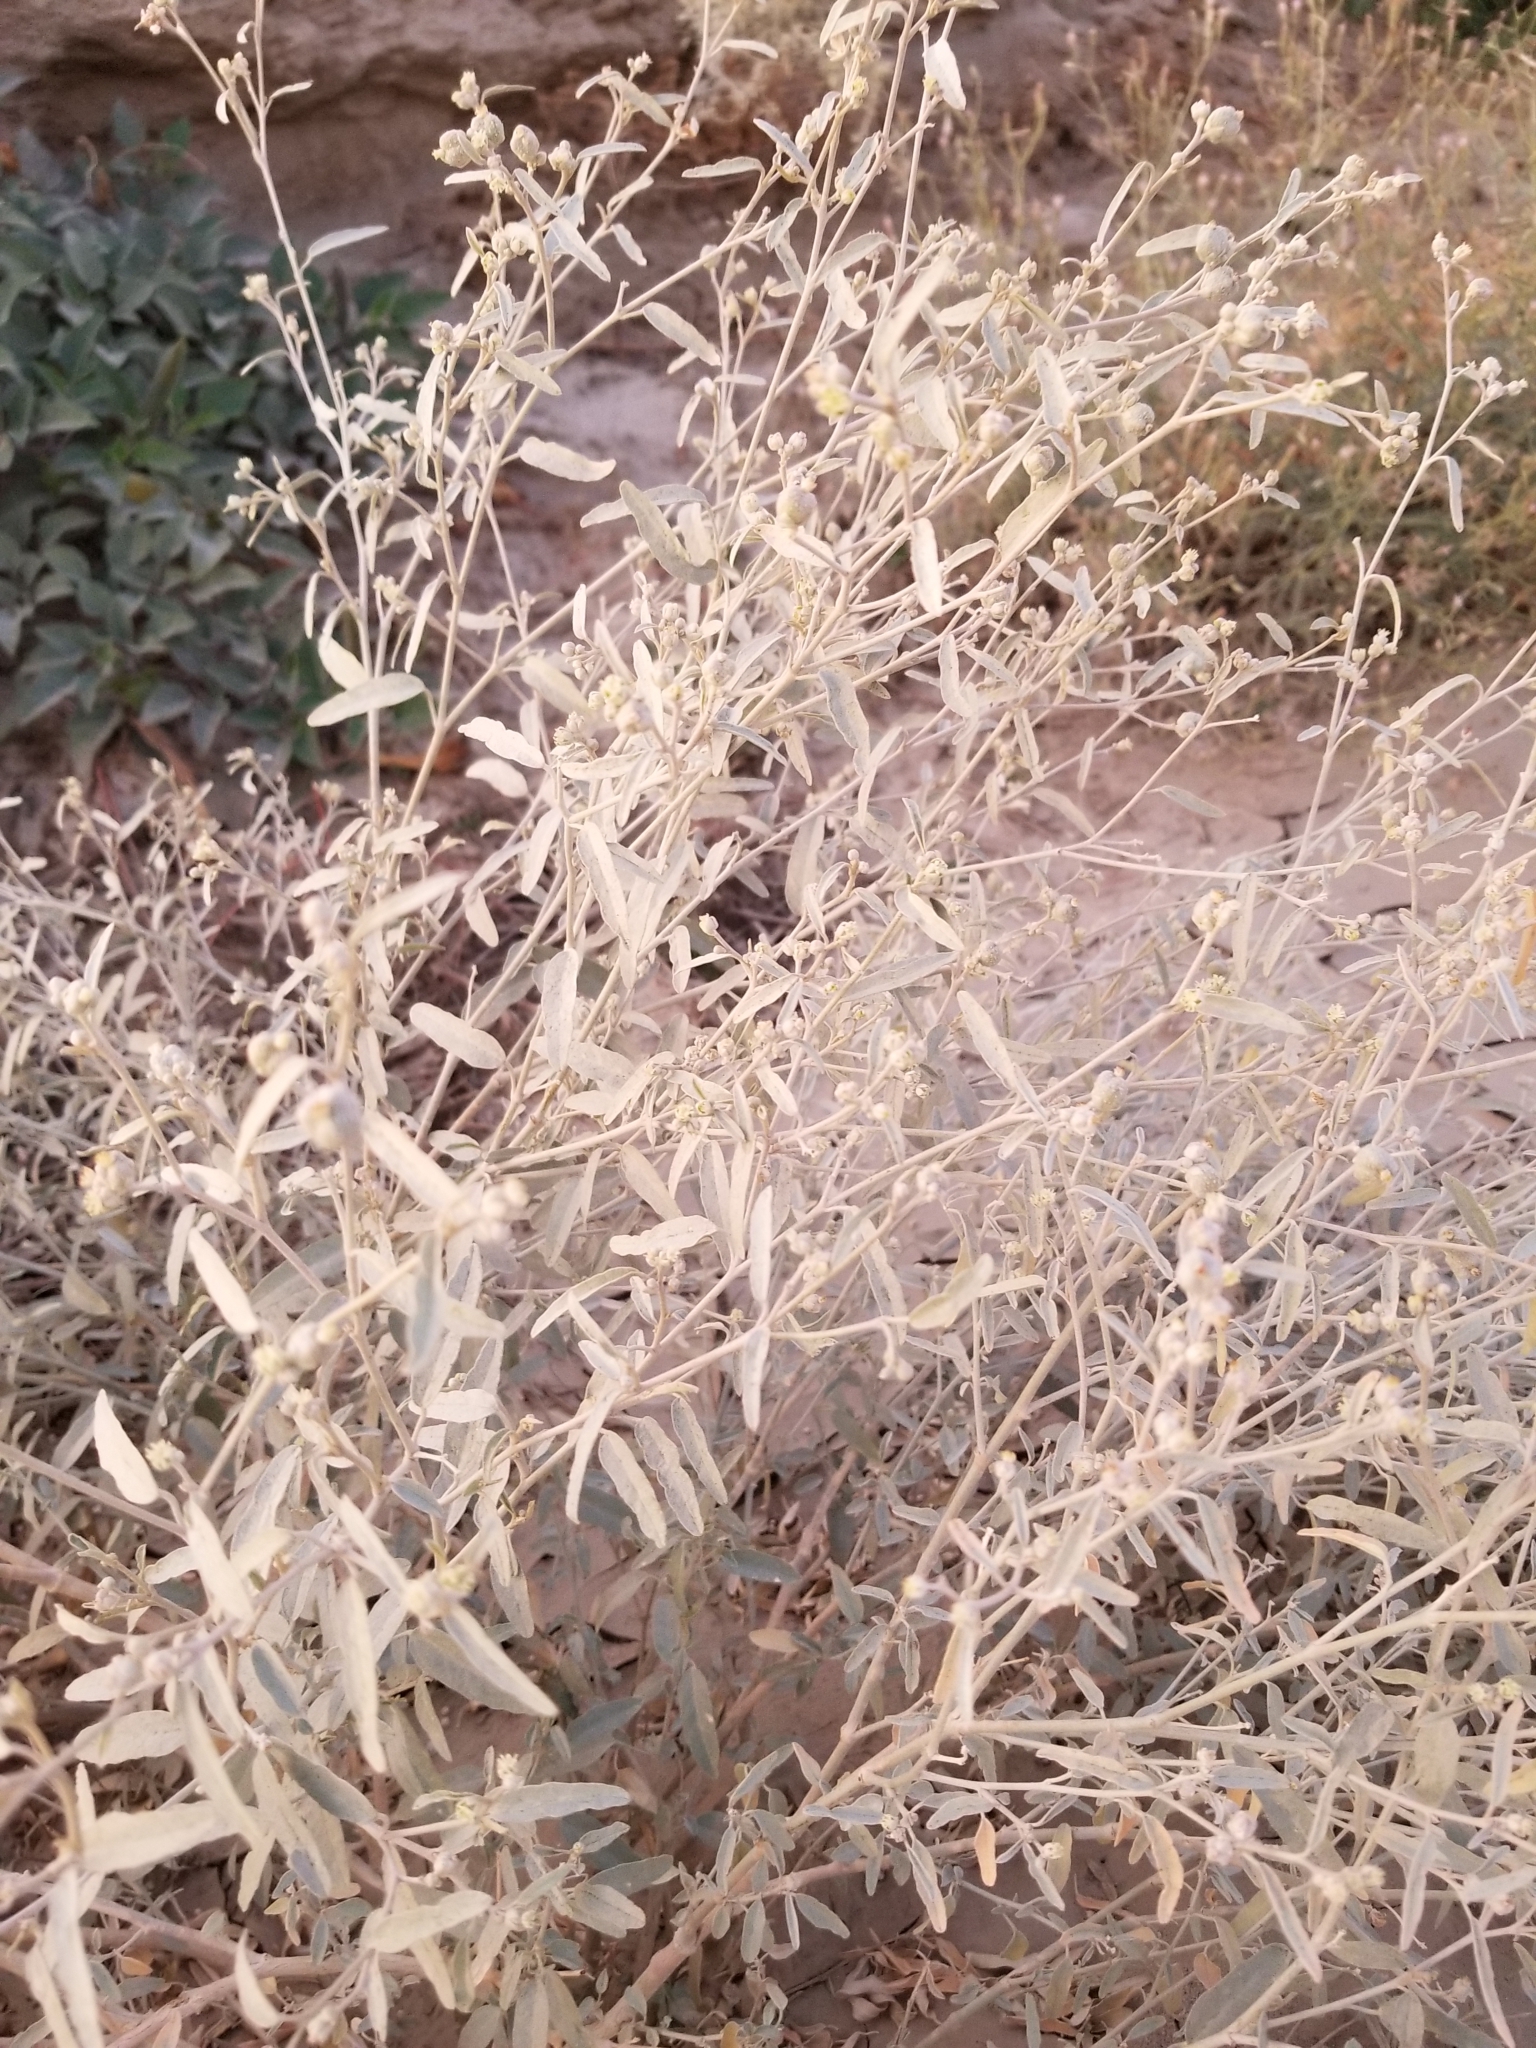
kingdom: Plantae
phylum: Tracheophyta
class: Magnoliopsida
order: Malpighiales
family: Euphorbiaceae
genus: Croton
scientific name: Croton californicus
